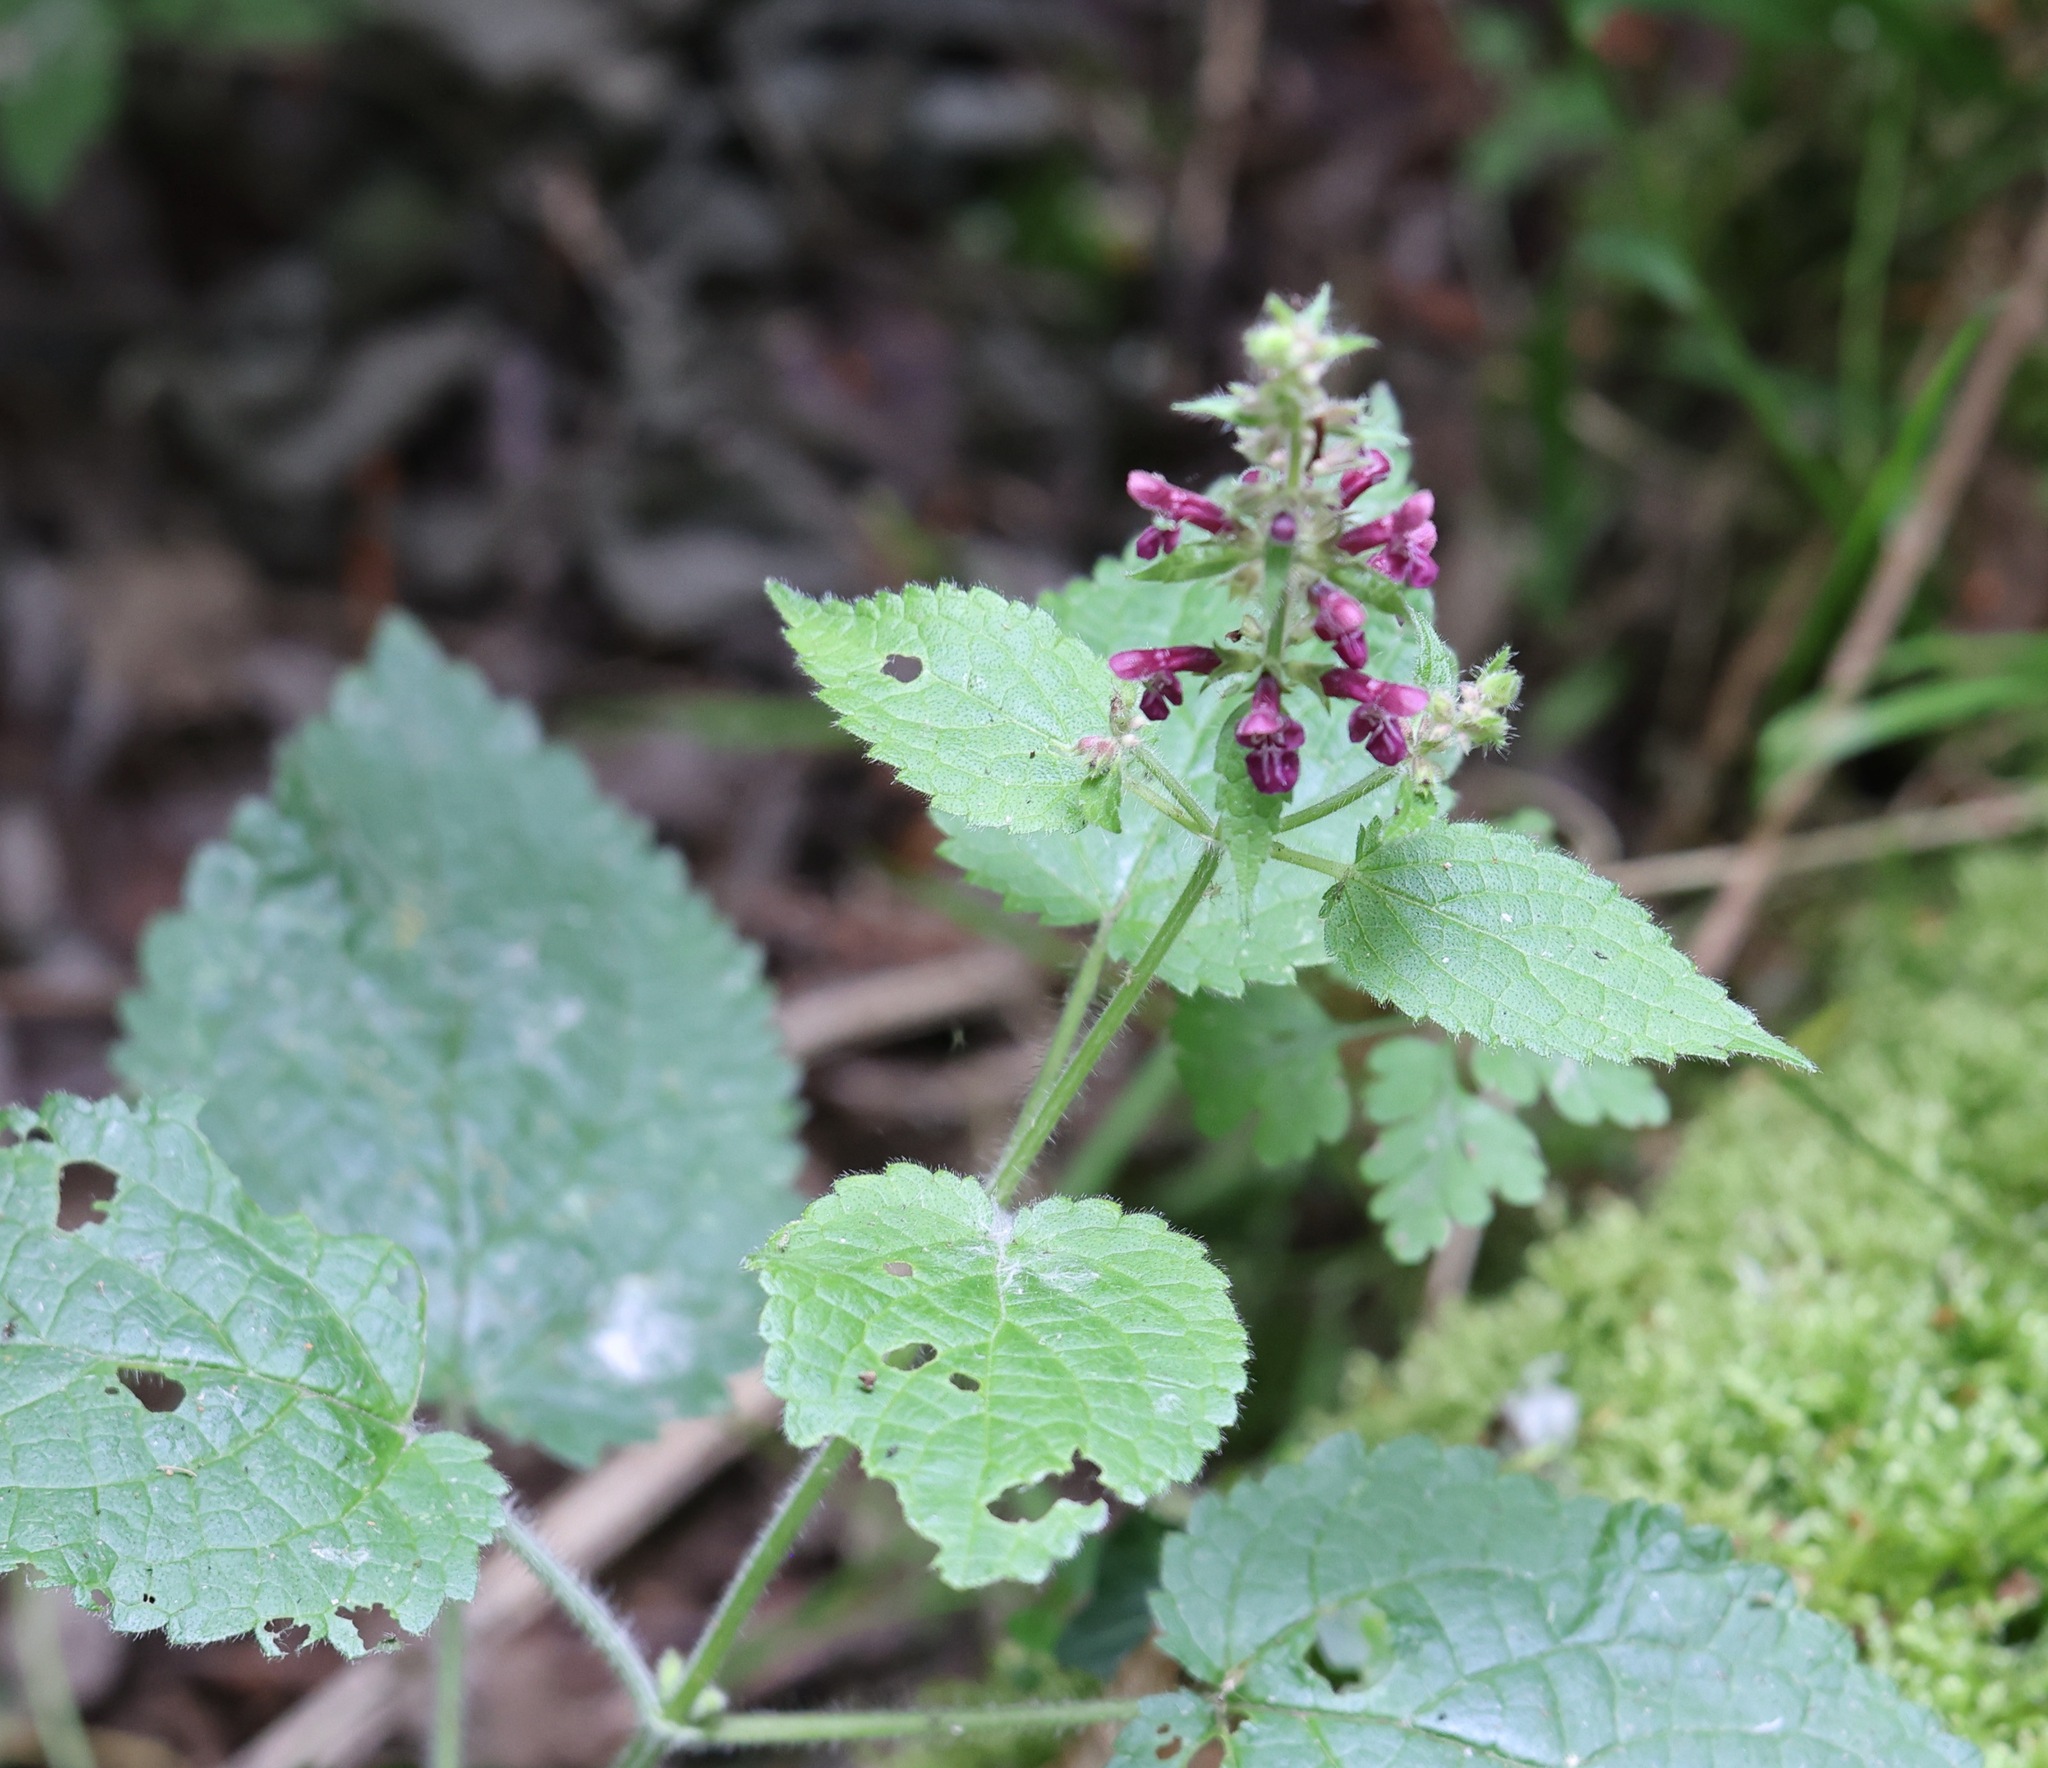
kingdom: Plantae
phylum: Tracheophyta
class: Magnoliopsida
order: Lamiales
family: Lamiaceae
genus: Stachys
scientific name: Stachys sylvatica
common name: Hedge woundwort
